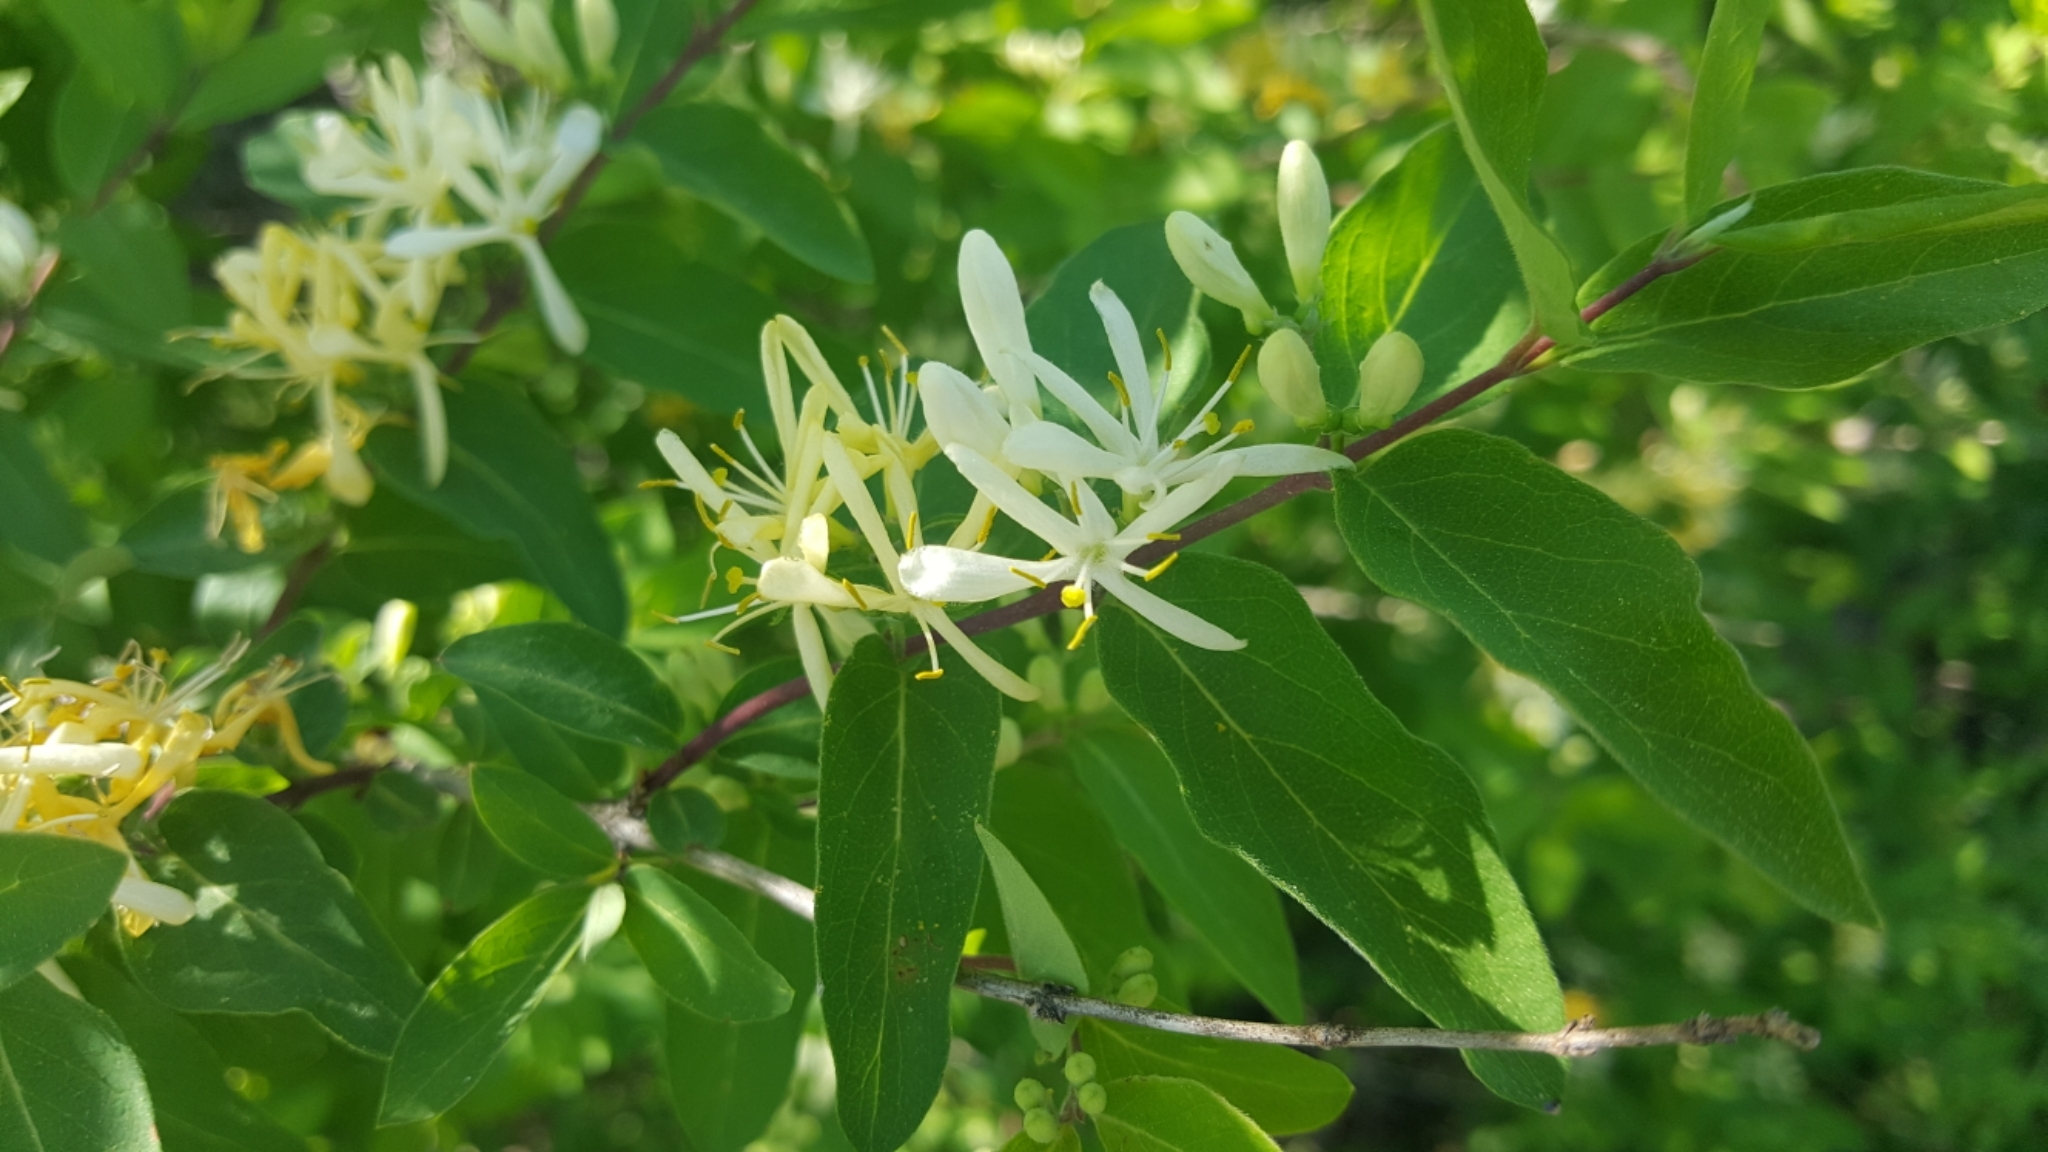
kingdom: Plantae
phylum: Tracheophyta
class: Magnoliopsida
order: Dipsacales
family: Caprifoliaceae
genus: Lonicera
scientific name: Lonicera morrowii
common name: Morrow's honeysuckle
